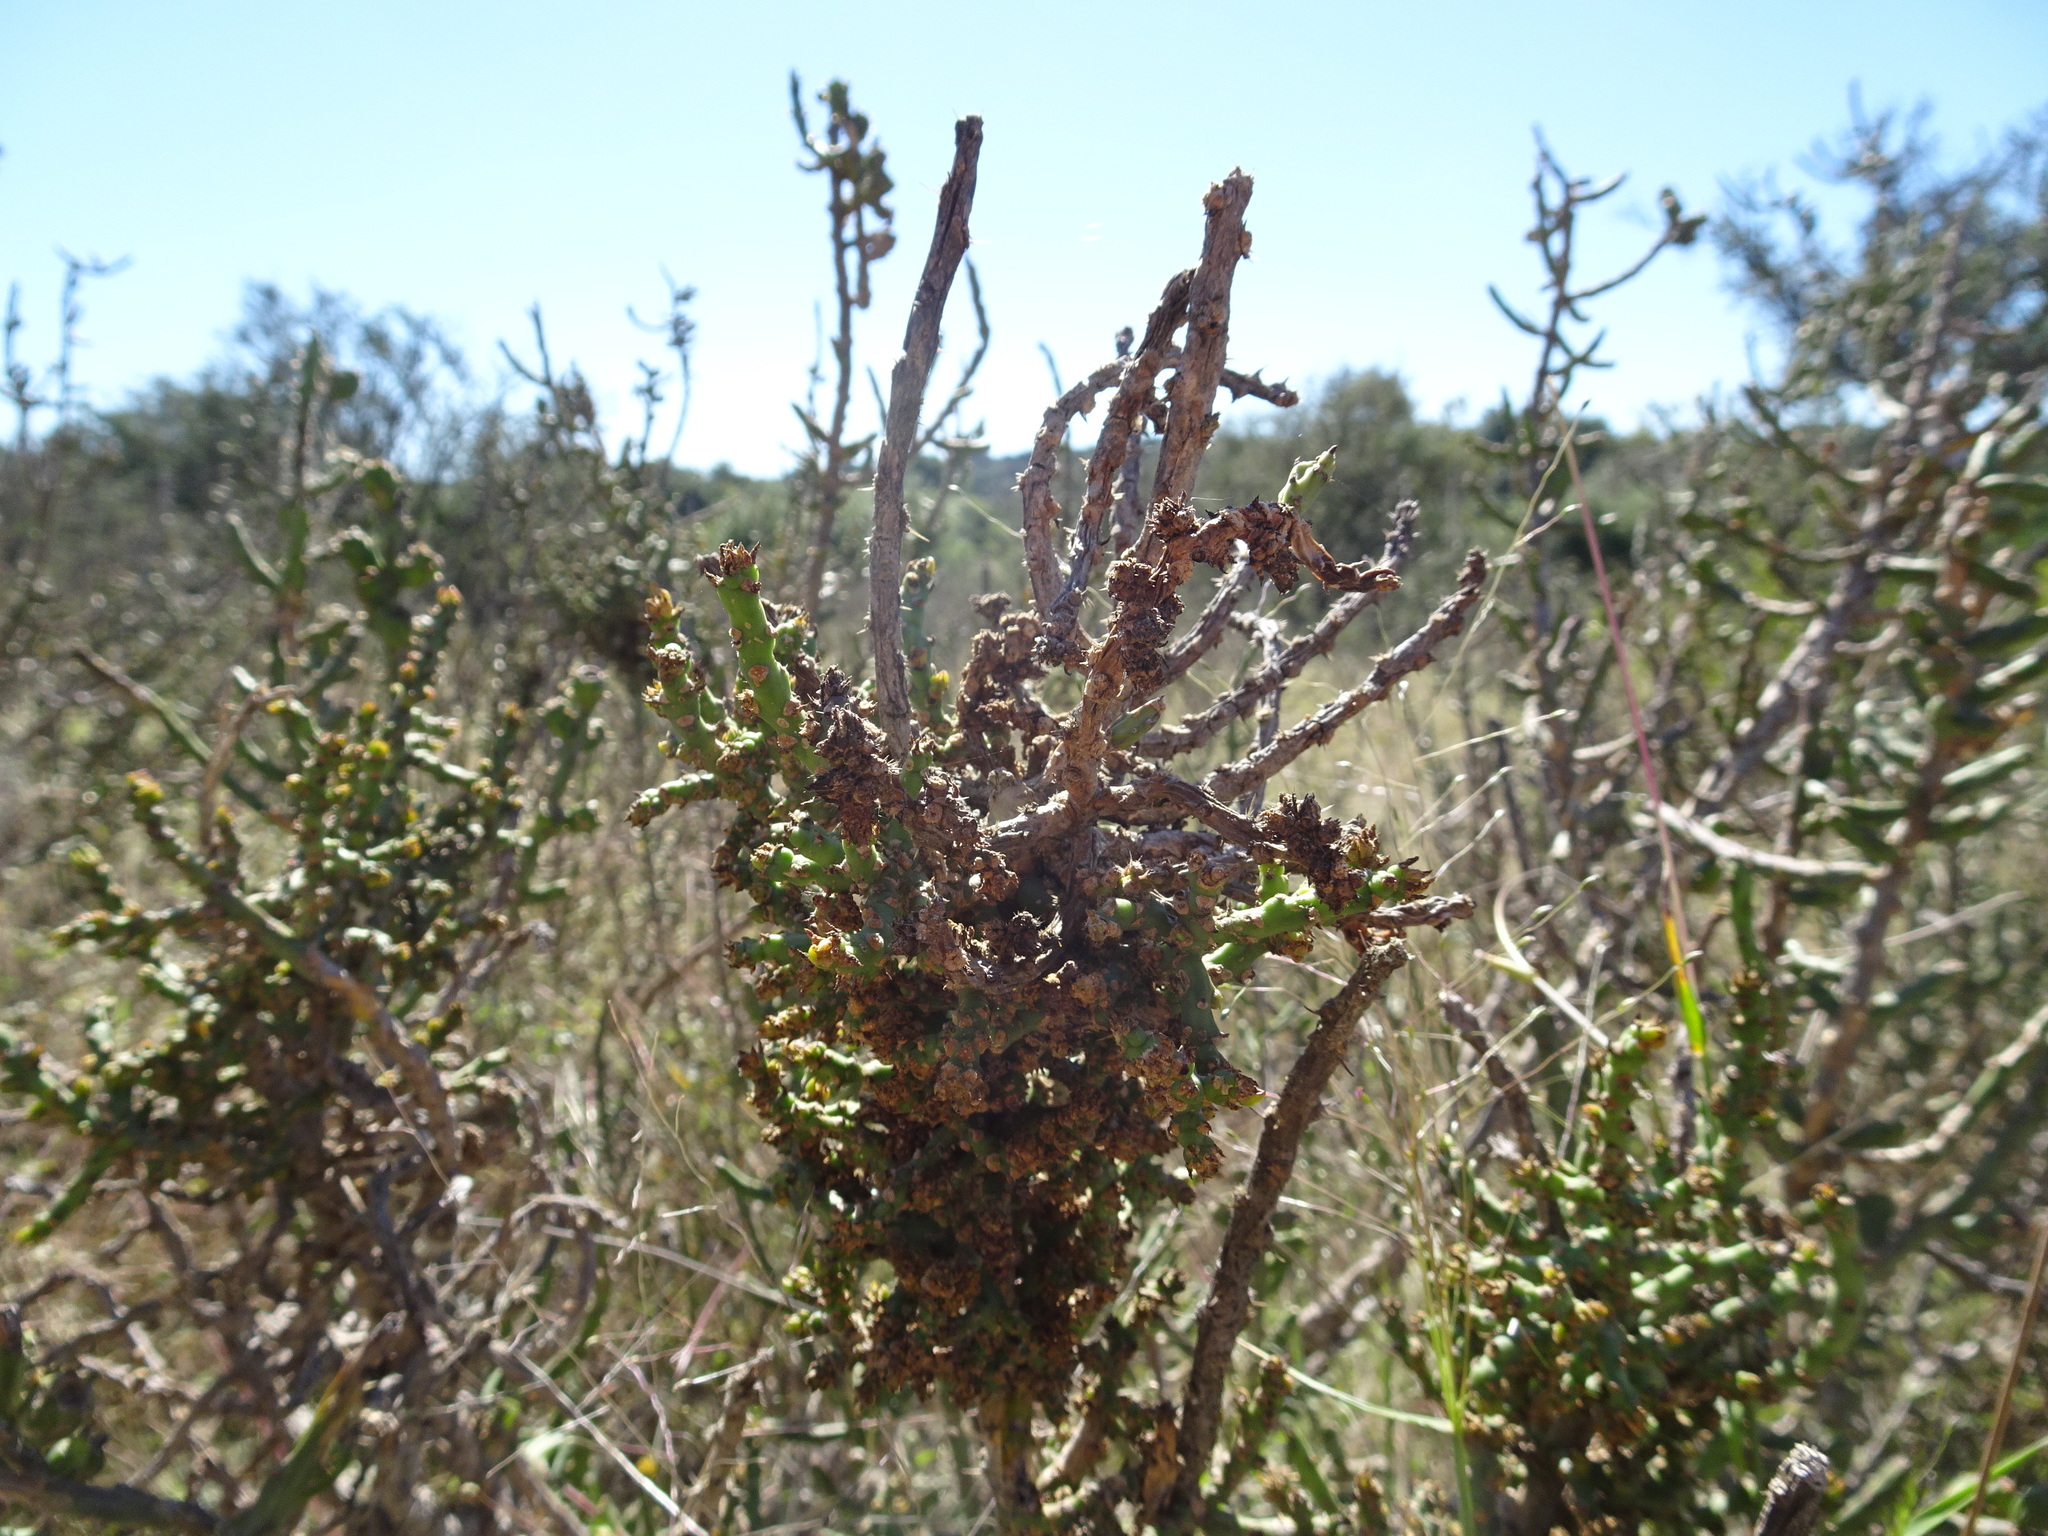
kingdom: Plantae
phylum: Tracheophyta
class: Magnoliopsida
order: Caryophyllales
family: Cactaceae
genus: Cylindropuntia
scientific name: Cylindropuntia leptocaulis
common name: Christmas cactus
